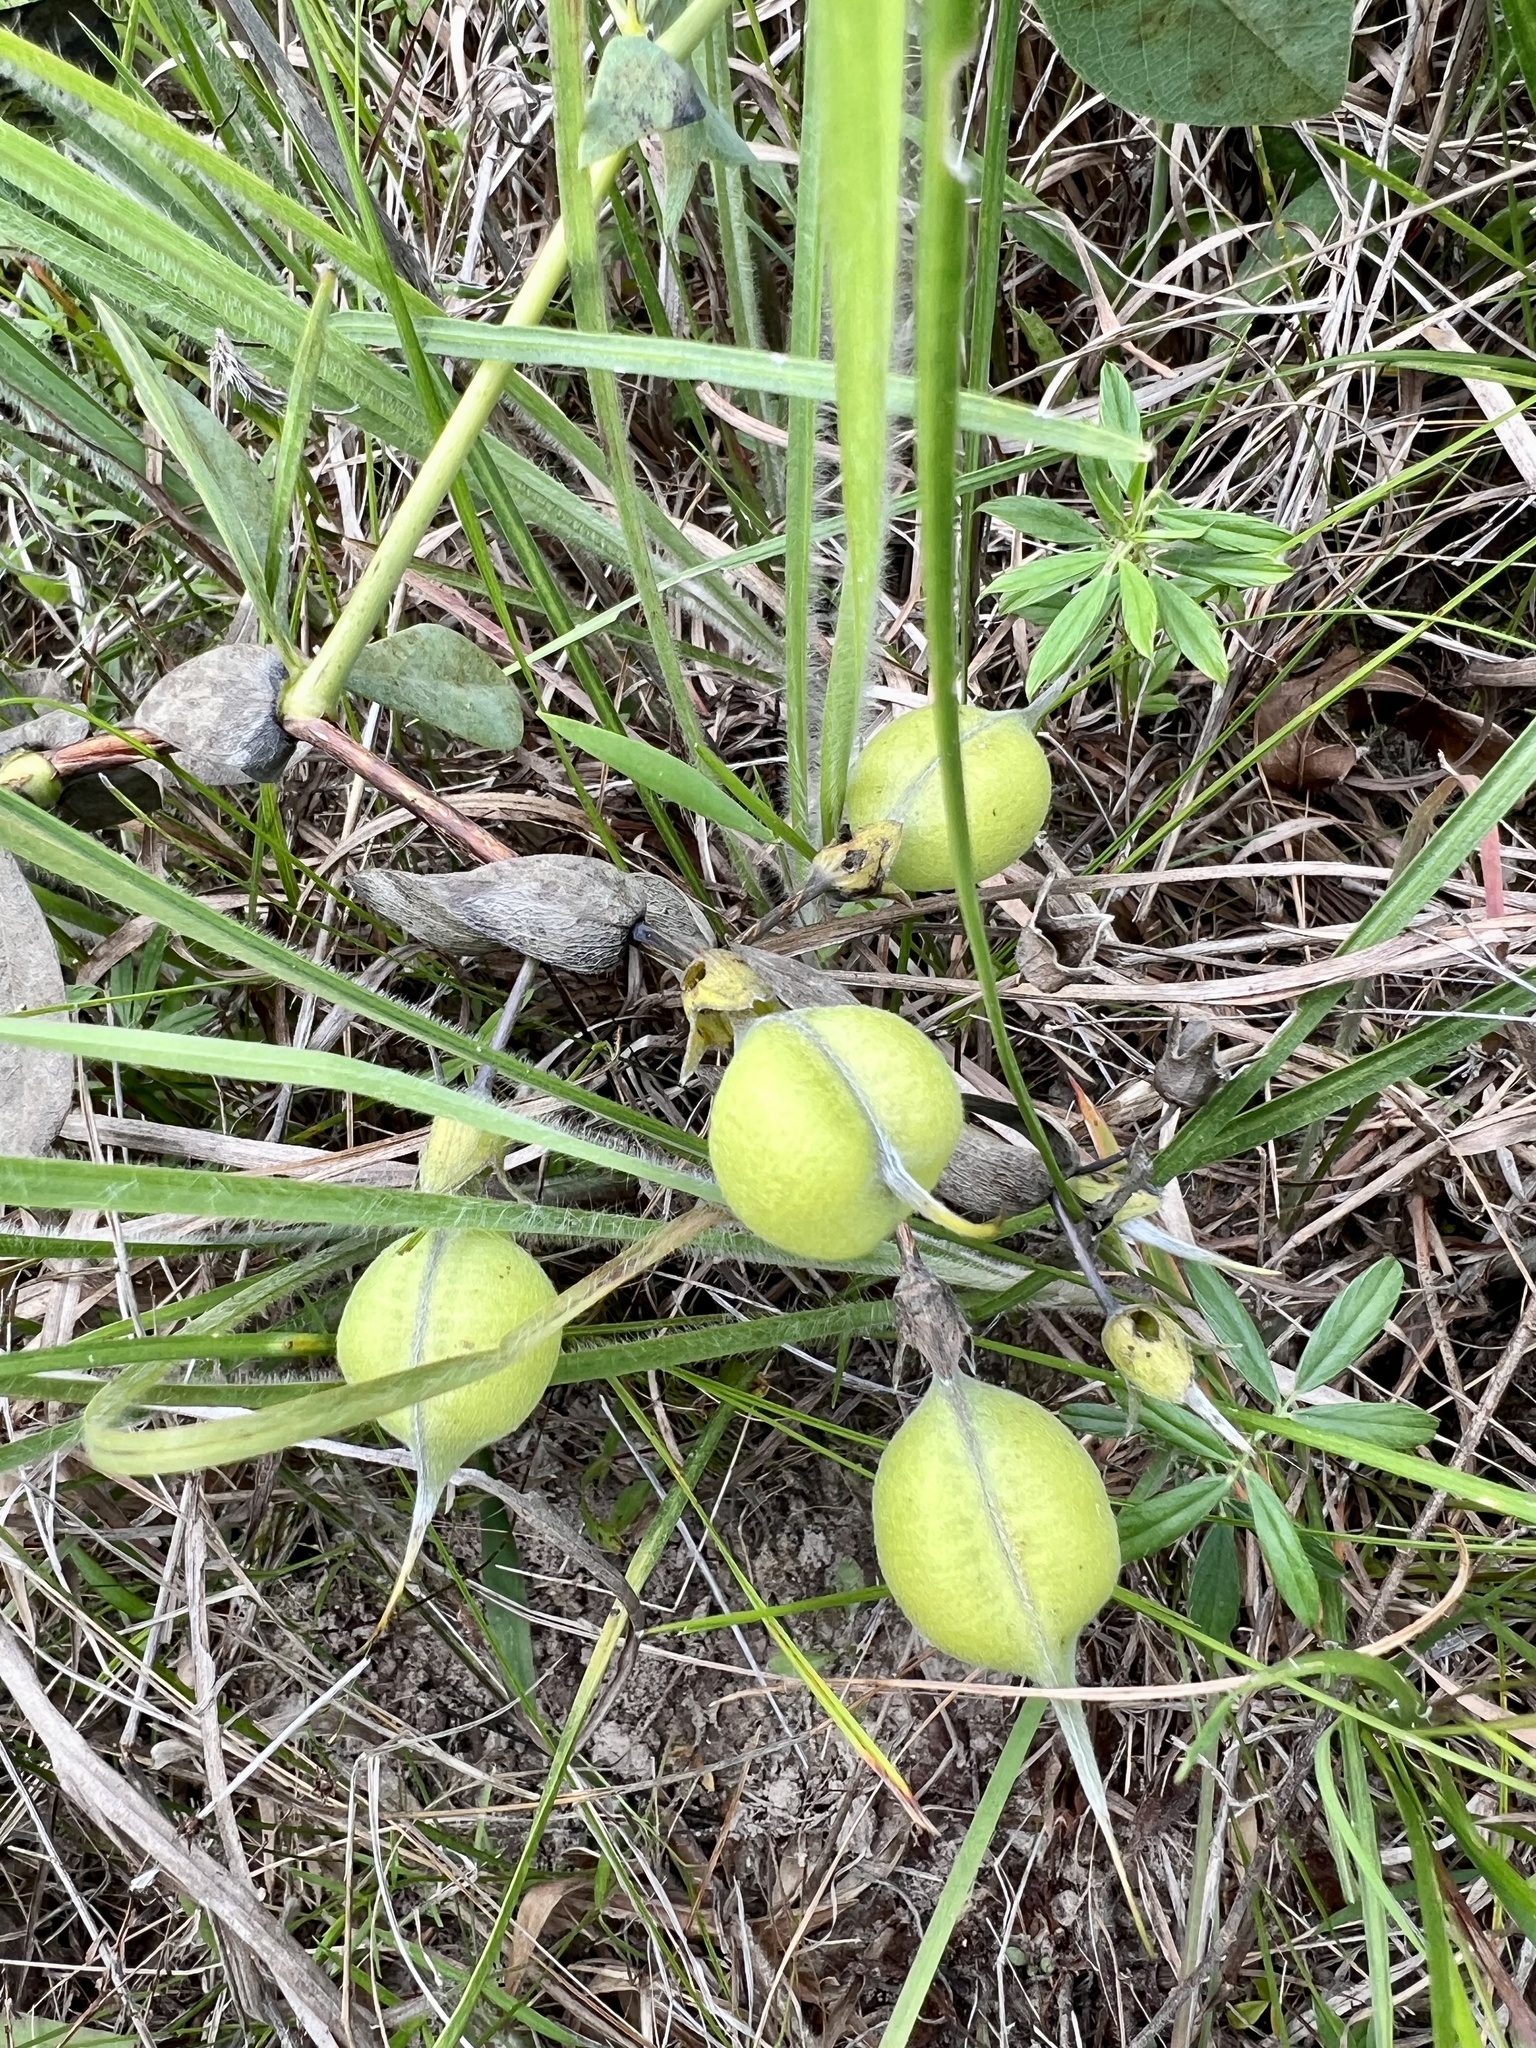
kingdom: Plantae
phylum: Tracheophyta
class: Magnoliopsida
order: Fabales
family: Fabaceae
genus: Baptisia
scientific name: Baptisia bracteata
